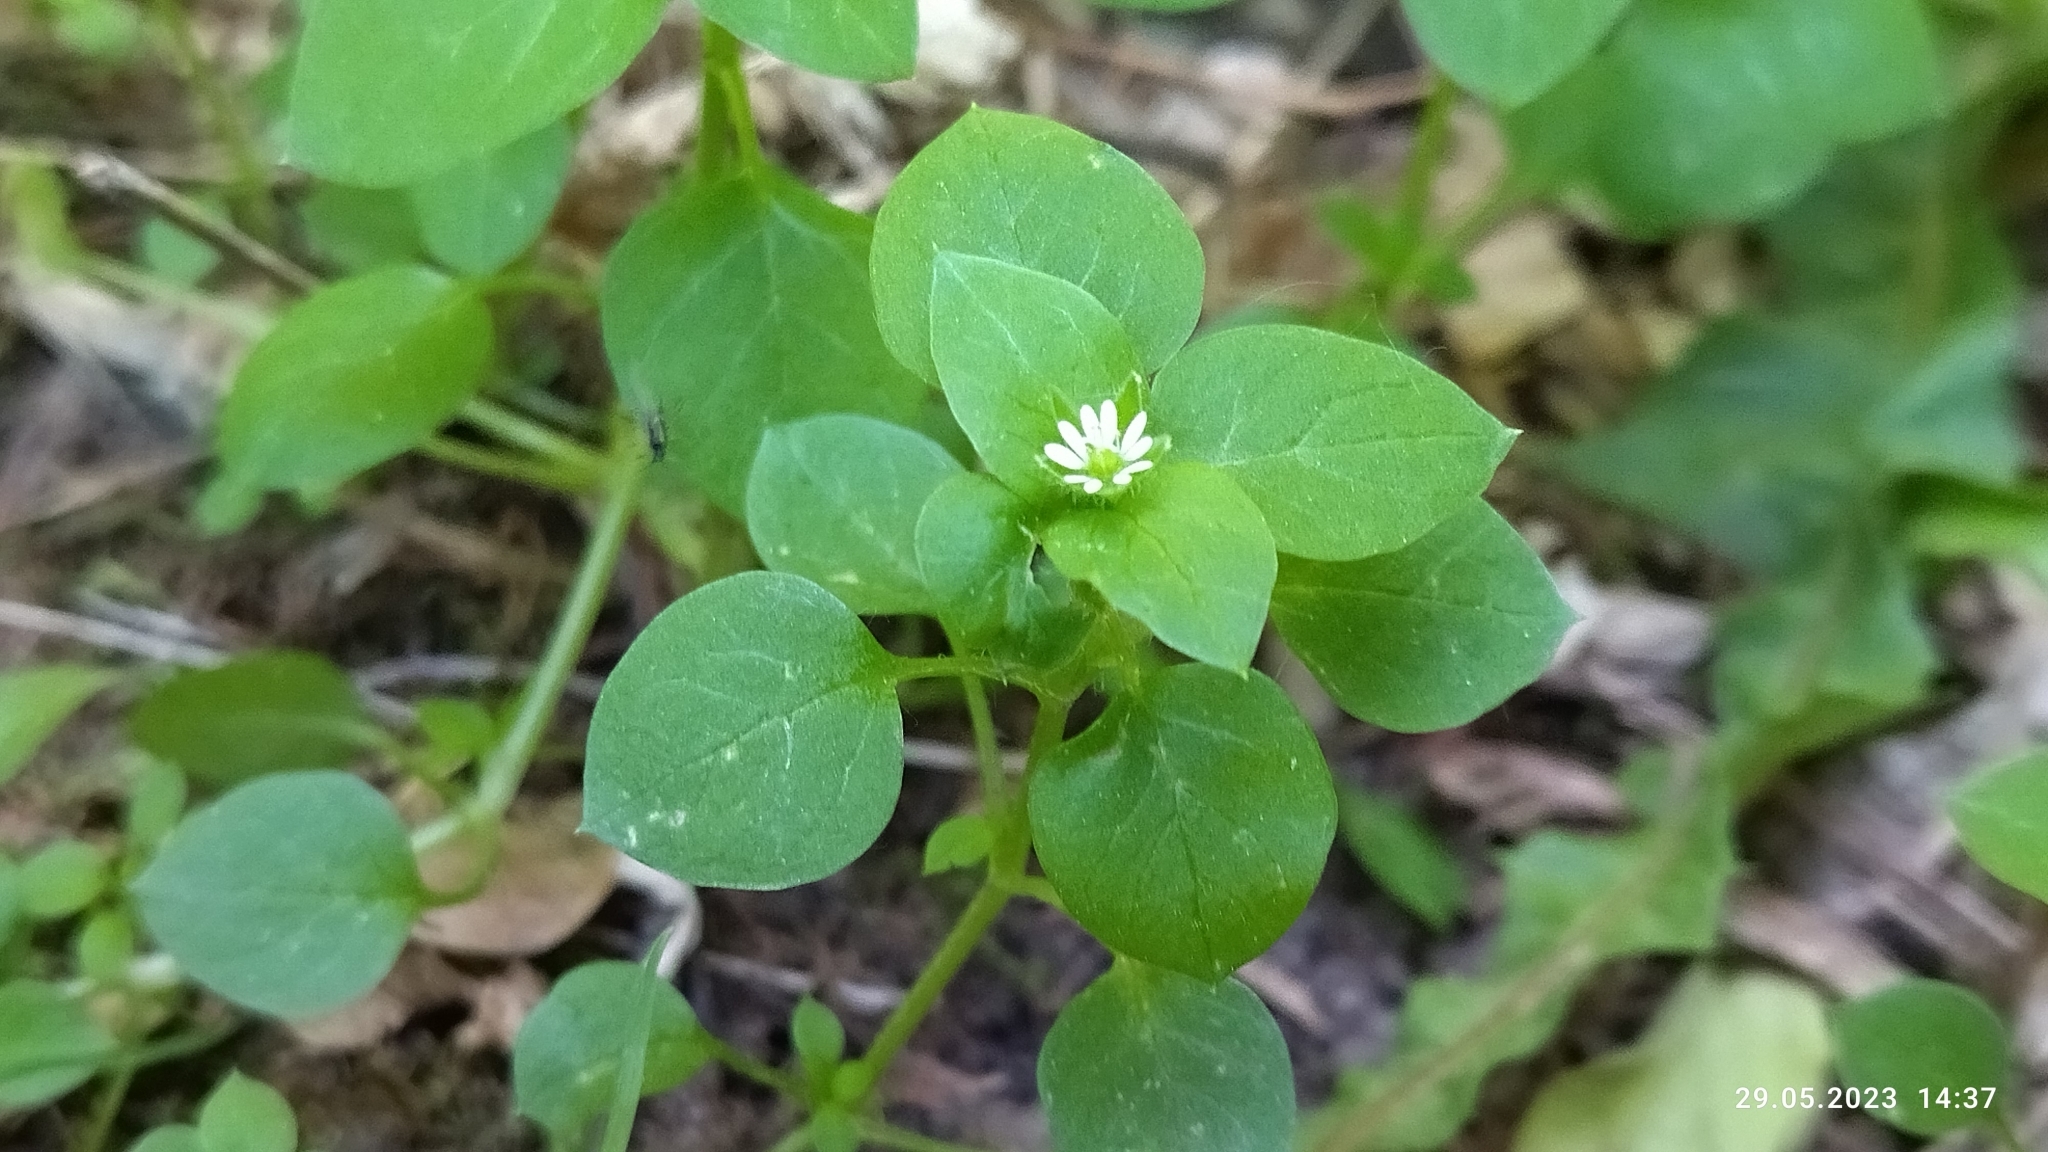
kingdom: Plantae
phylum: Tracheophyta
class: Magnoliopsida
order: Caryophyllales
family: Caryophyllaceae
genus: Stellaria
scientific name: Stellaria media
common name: Common chickweed
